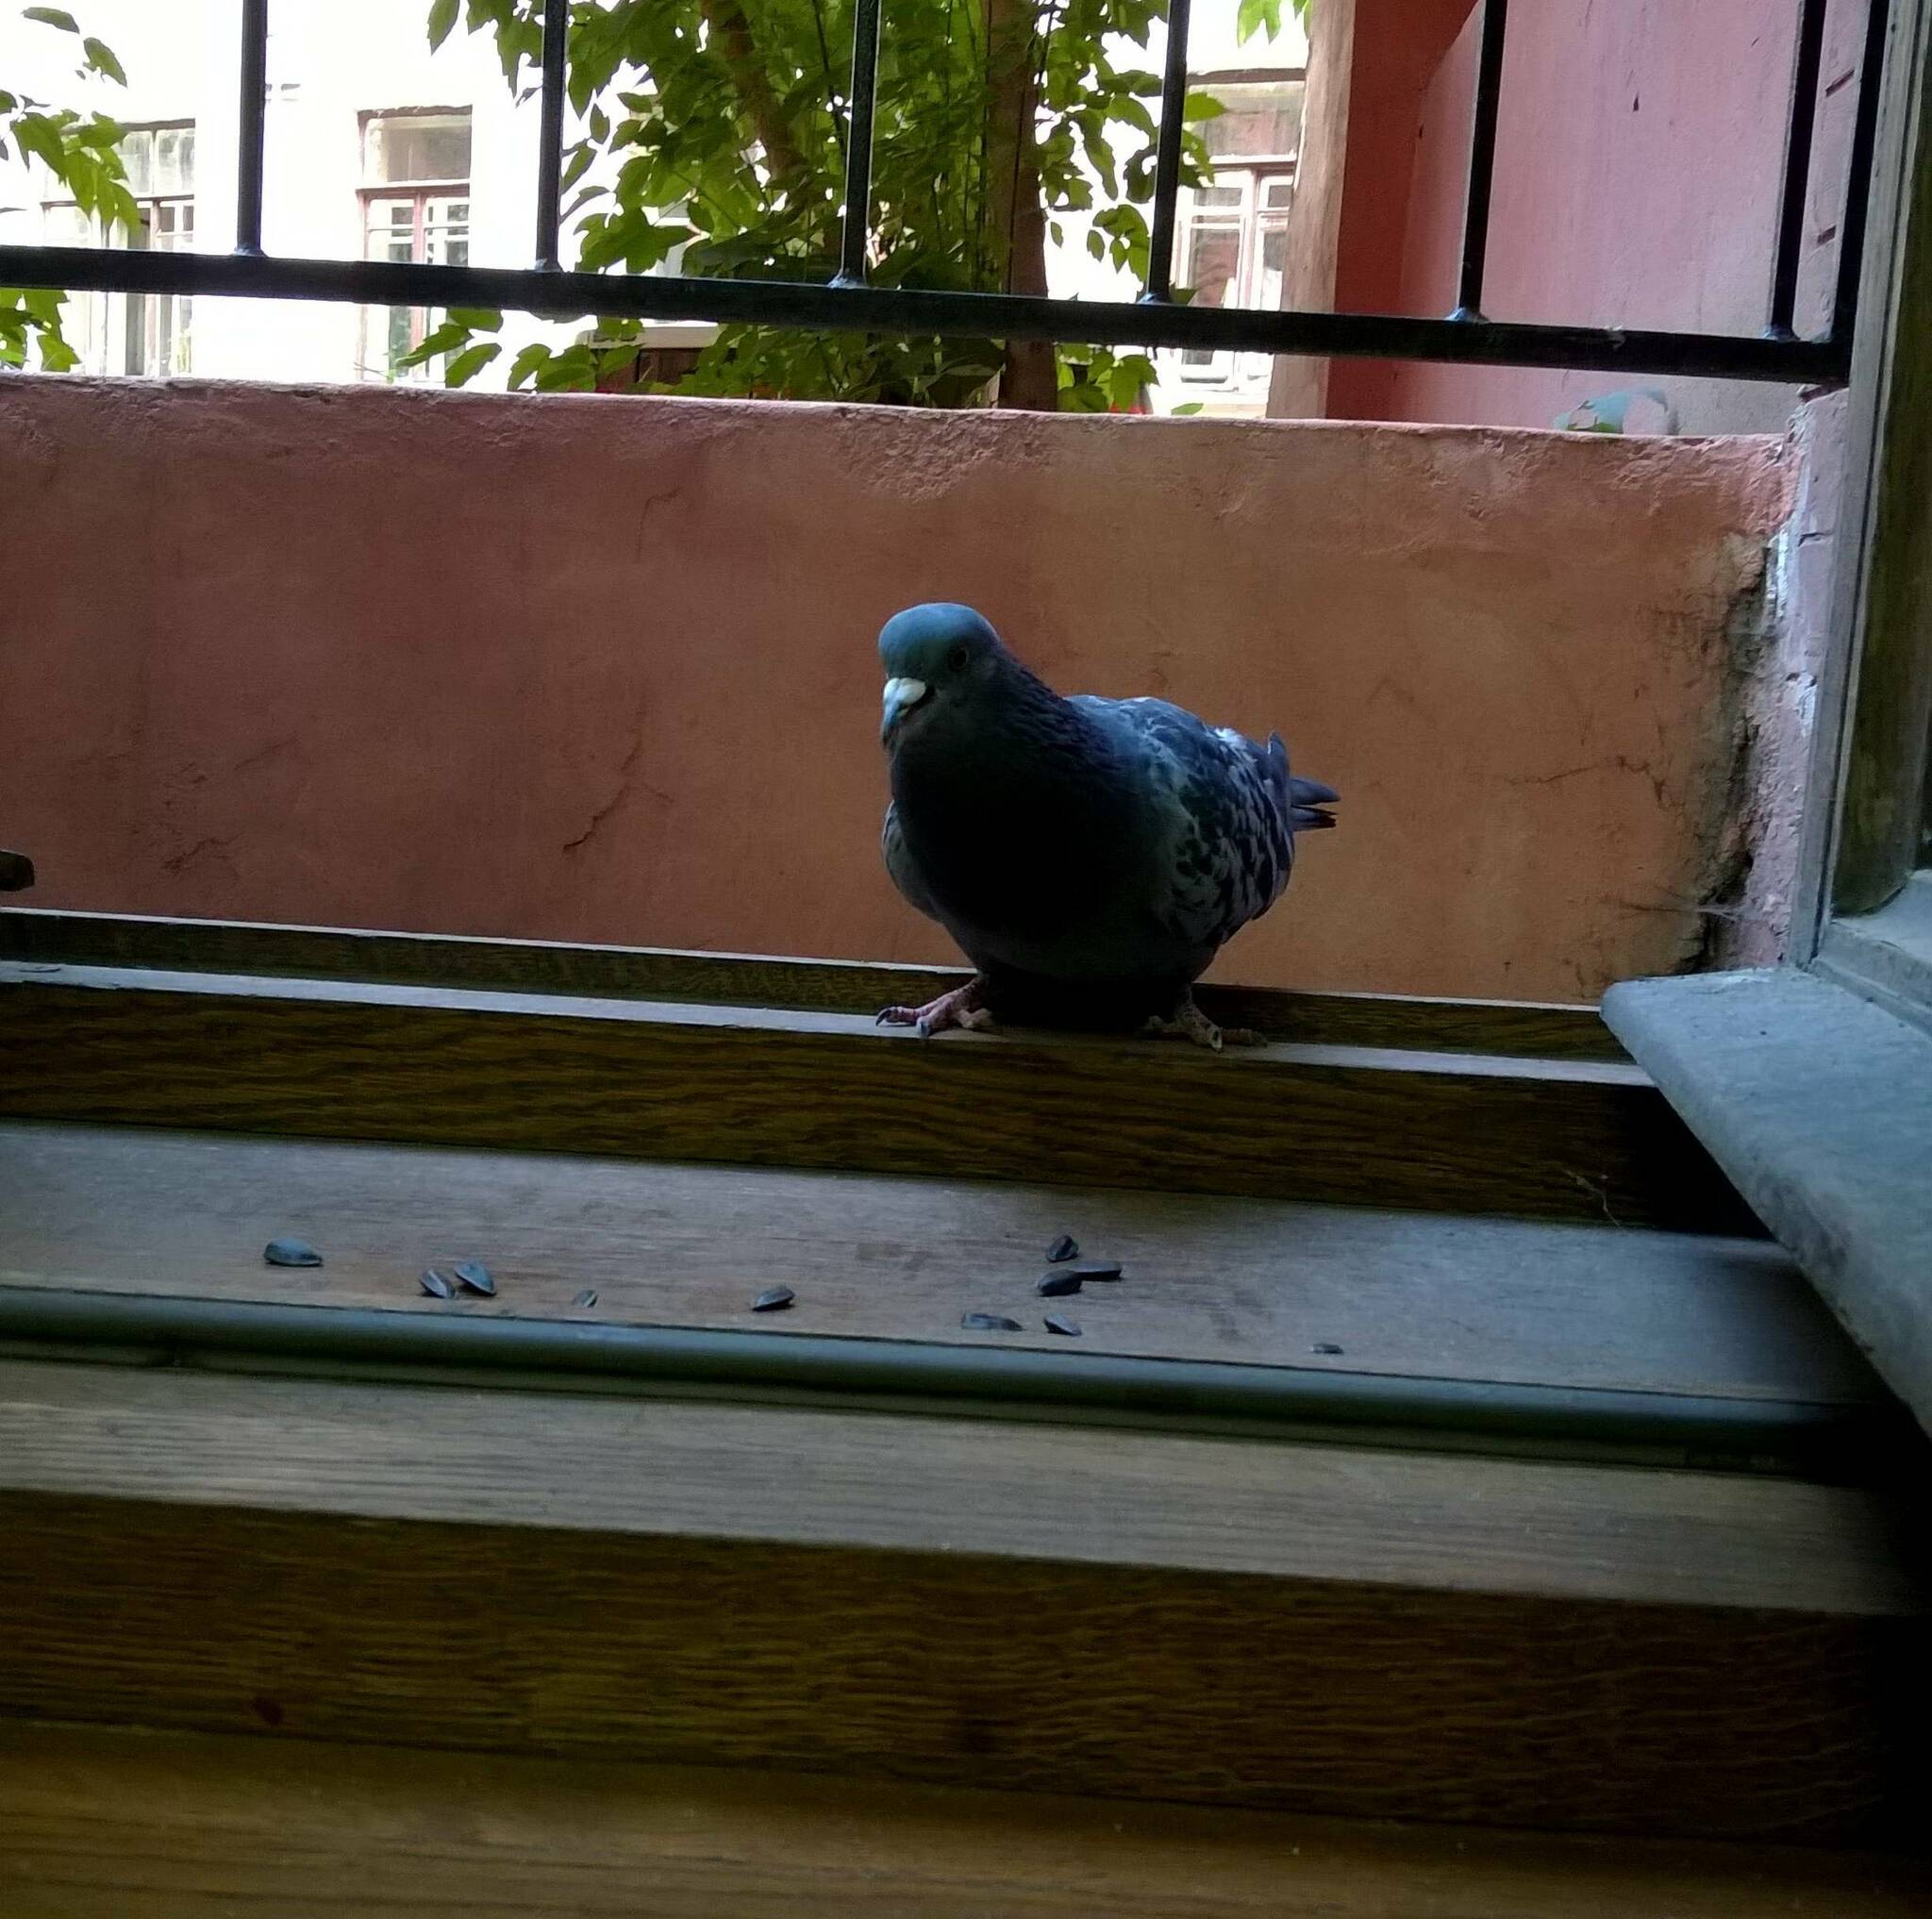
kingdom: Animalia
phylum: Chordata
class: Aves
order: Columbiformes
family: Columbidae
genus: Columba
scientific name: Columba livia
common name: Rock pigeon
